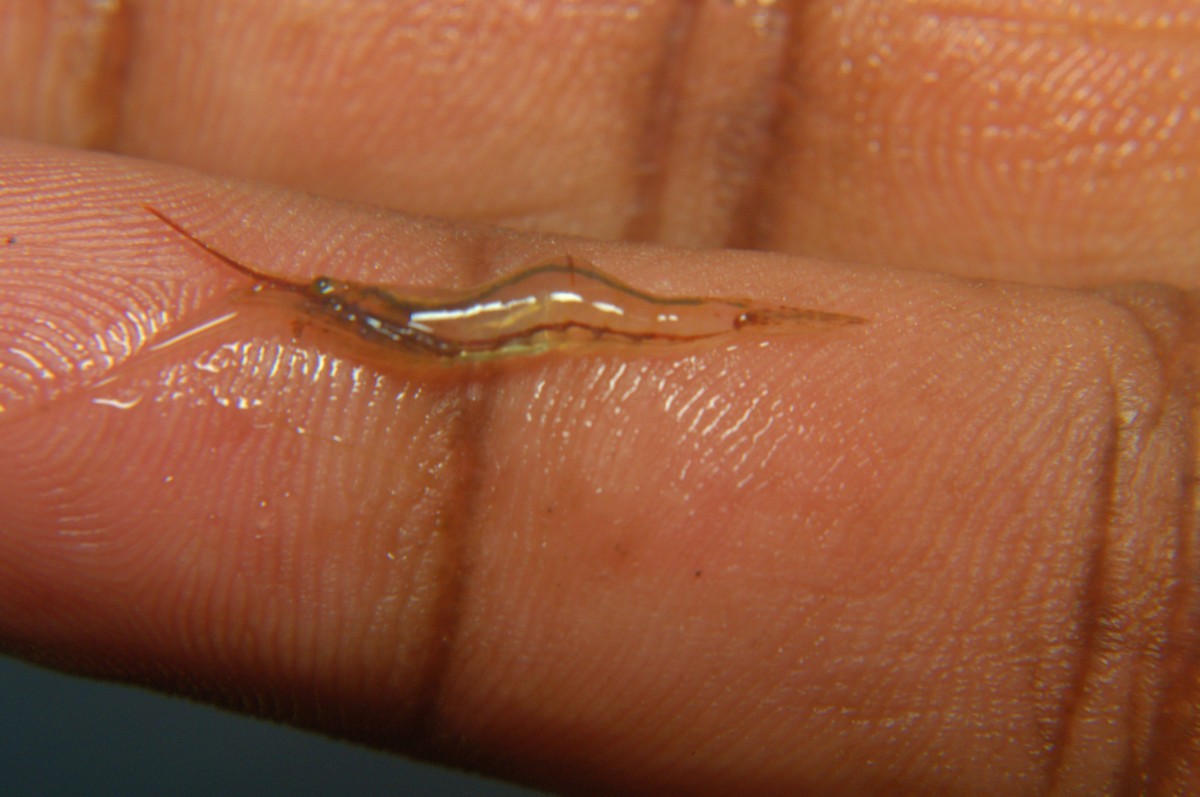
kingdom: Animalia
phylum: Arthropoda
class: Malacostraca
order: Decapoda
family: Atyidae
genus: Caridina
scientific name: Caridina gracilirostris
